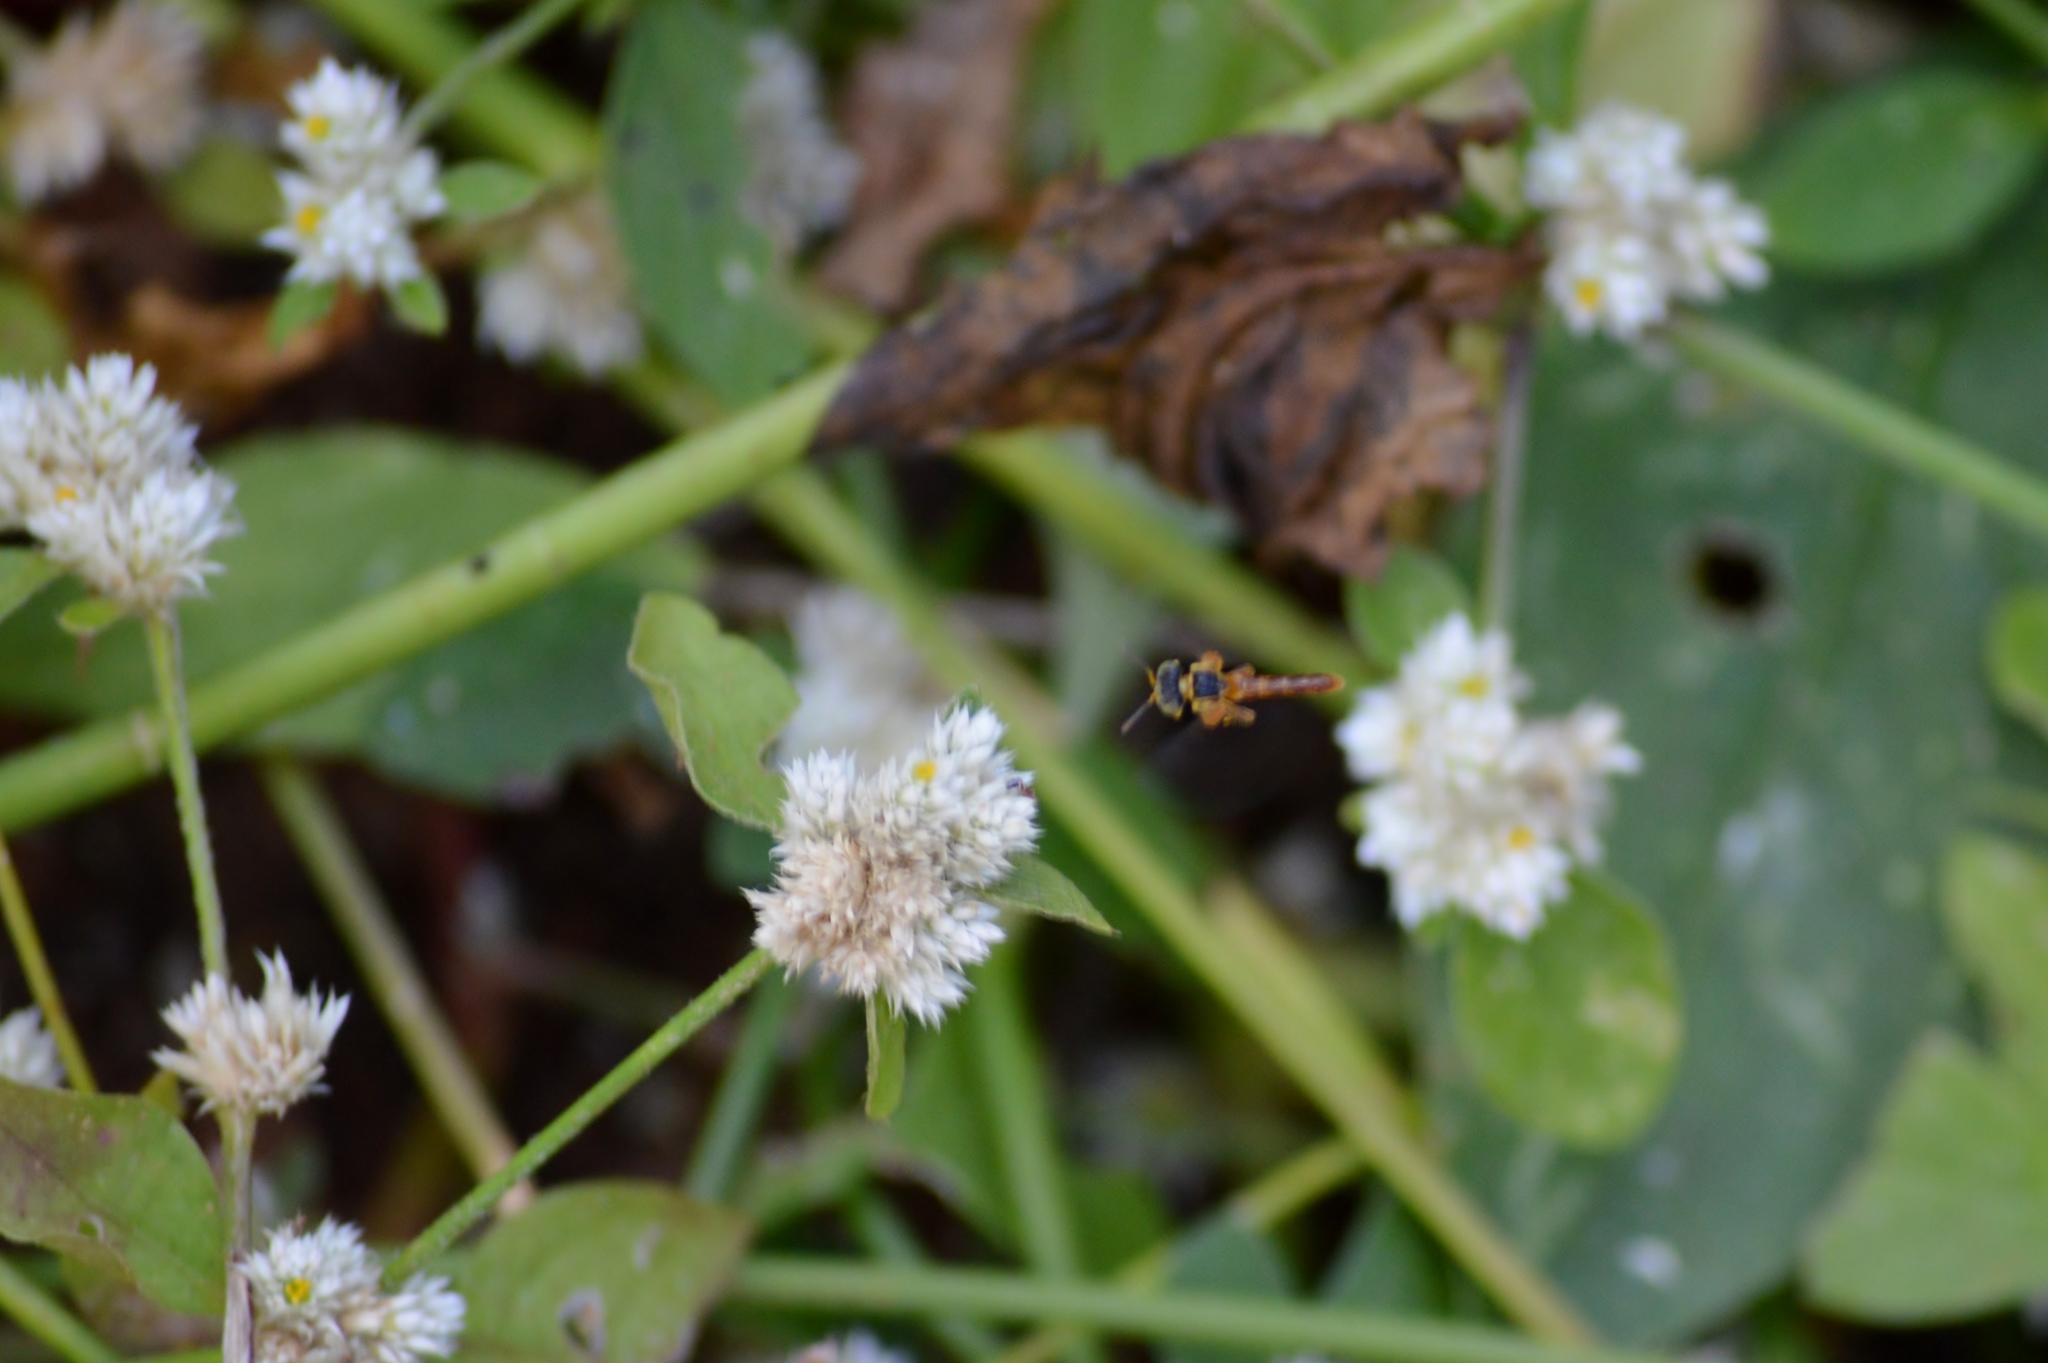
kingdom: Animalia
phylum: Arthropoda
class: Insecta
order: Hymenoptera
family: Apidae
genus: Tetragonisca
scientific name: Tetragonisca angustula
